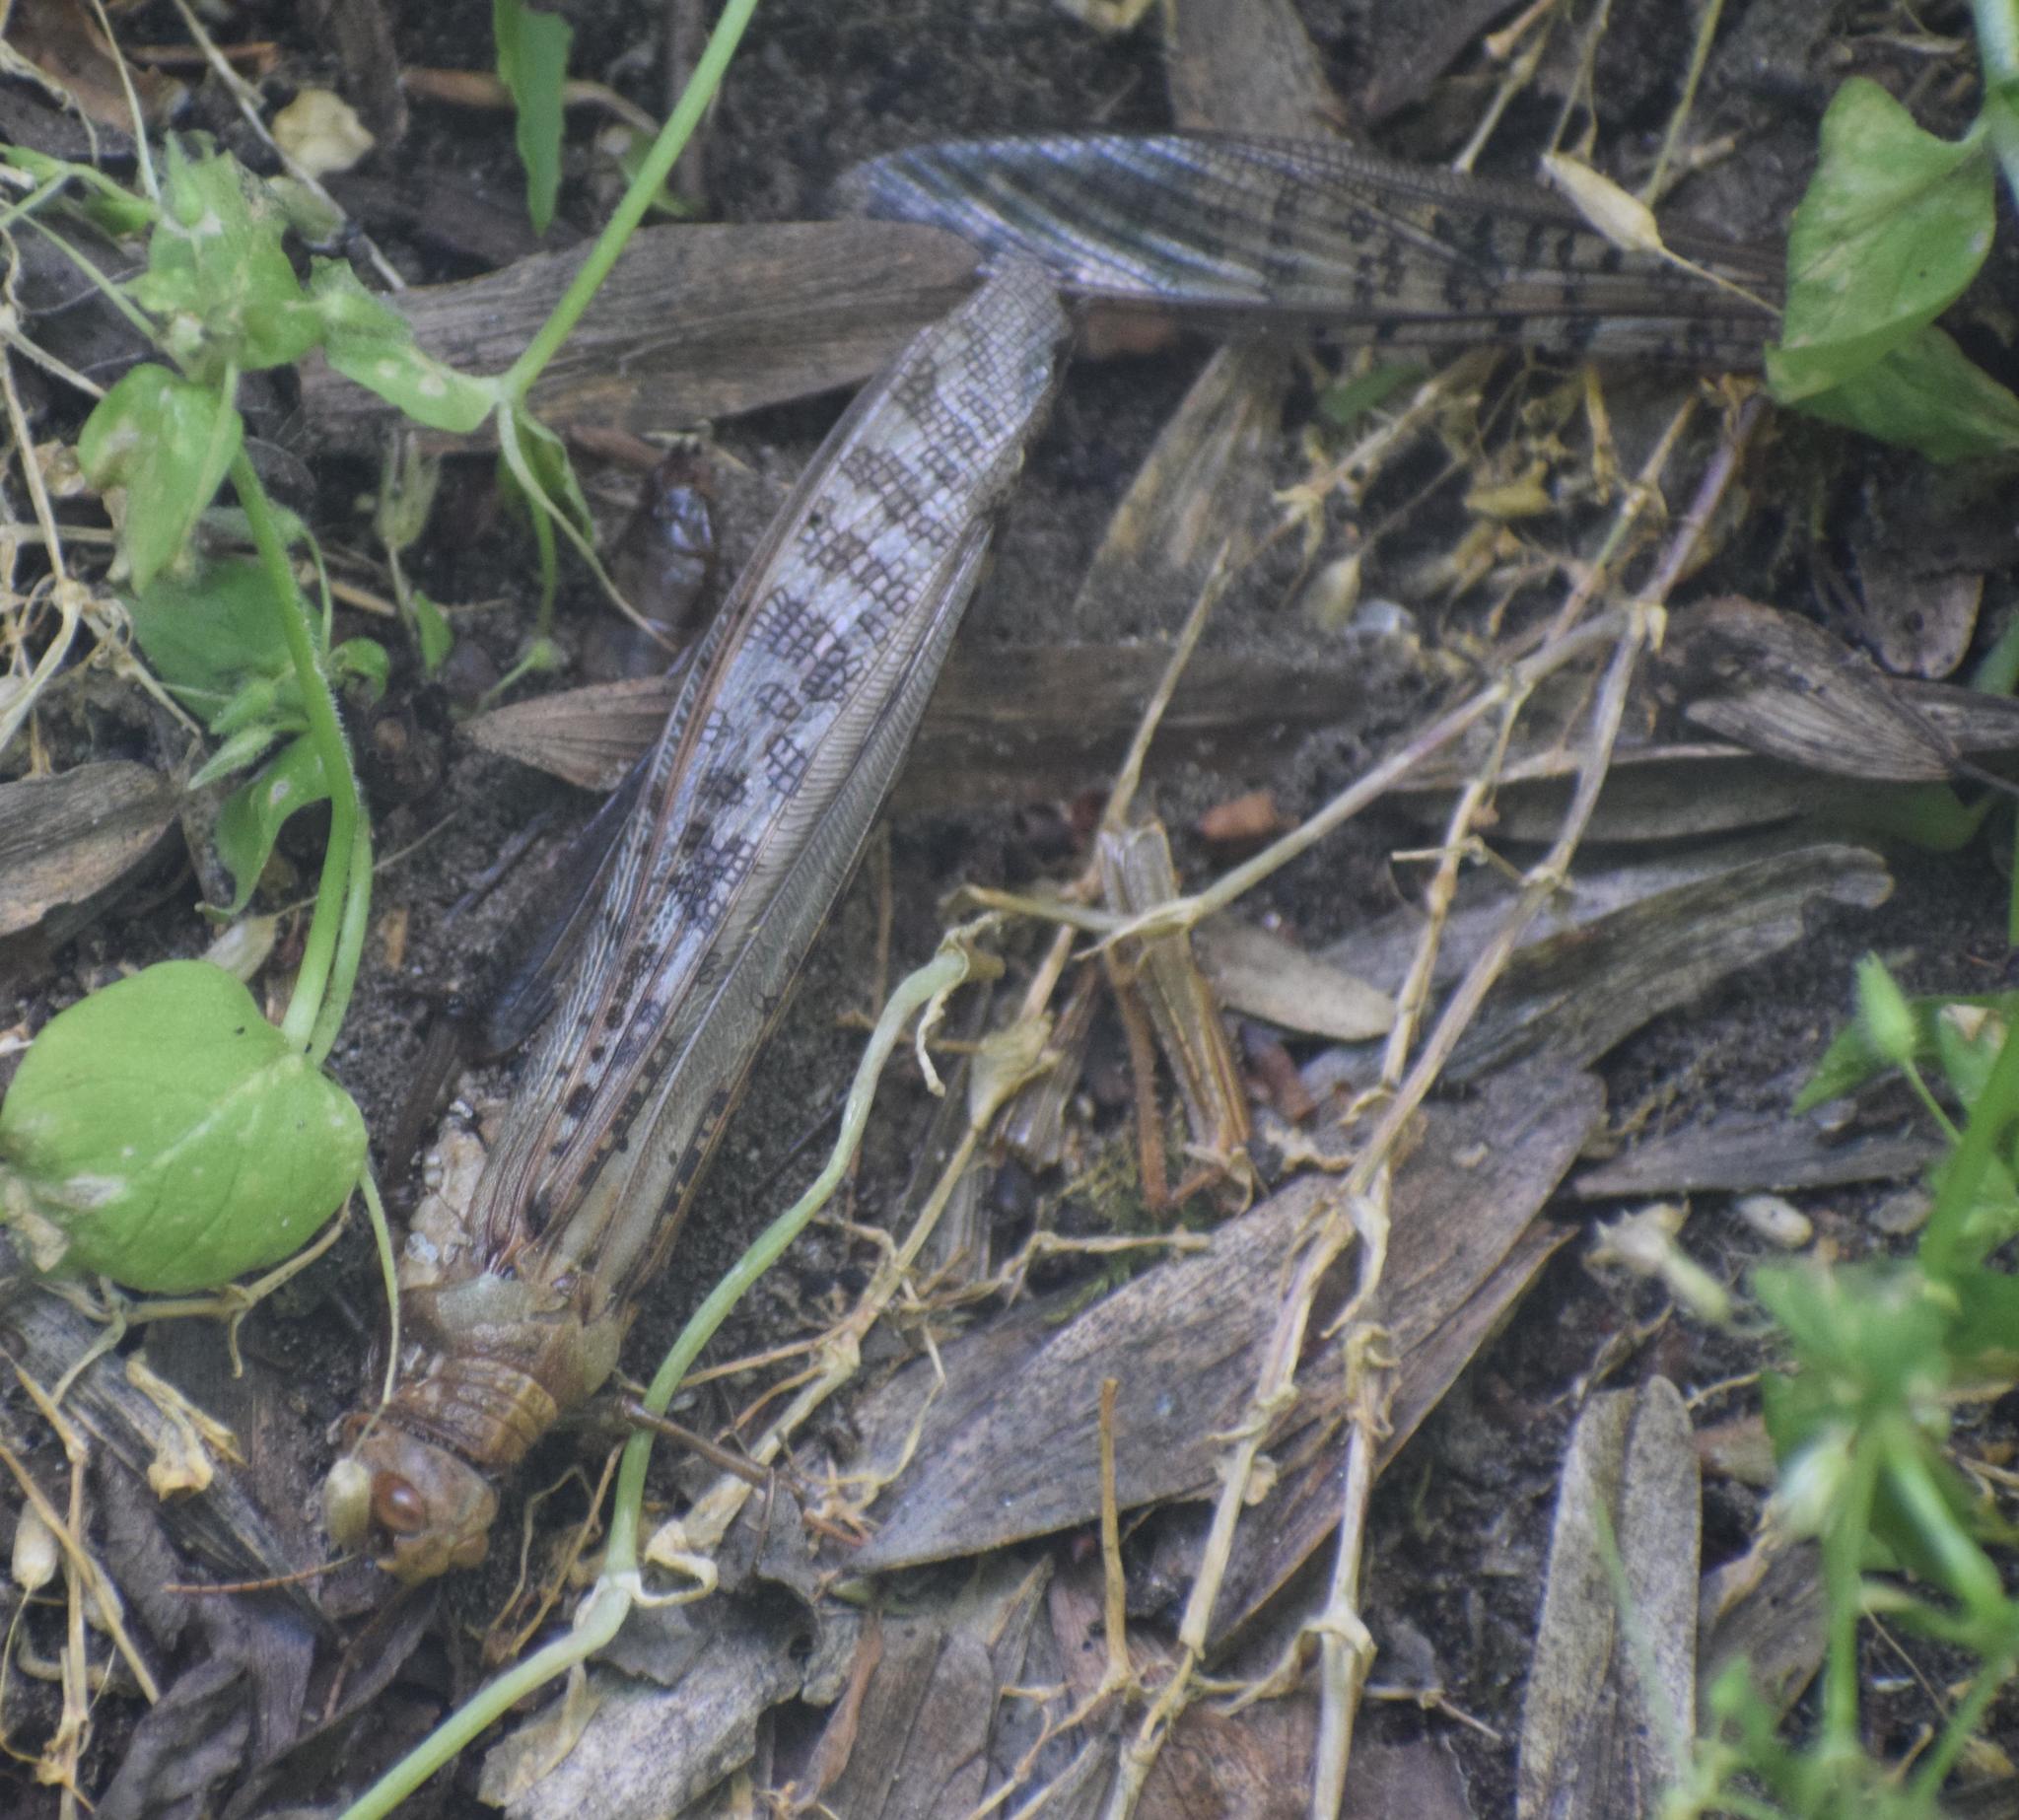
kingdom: Animalia
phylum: Arthropoda
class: Insecta
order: Orthoptera
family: Acrididae
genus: Schistocerca
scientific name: Schistocerca gregaria
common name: Desert locust
